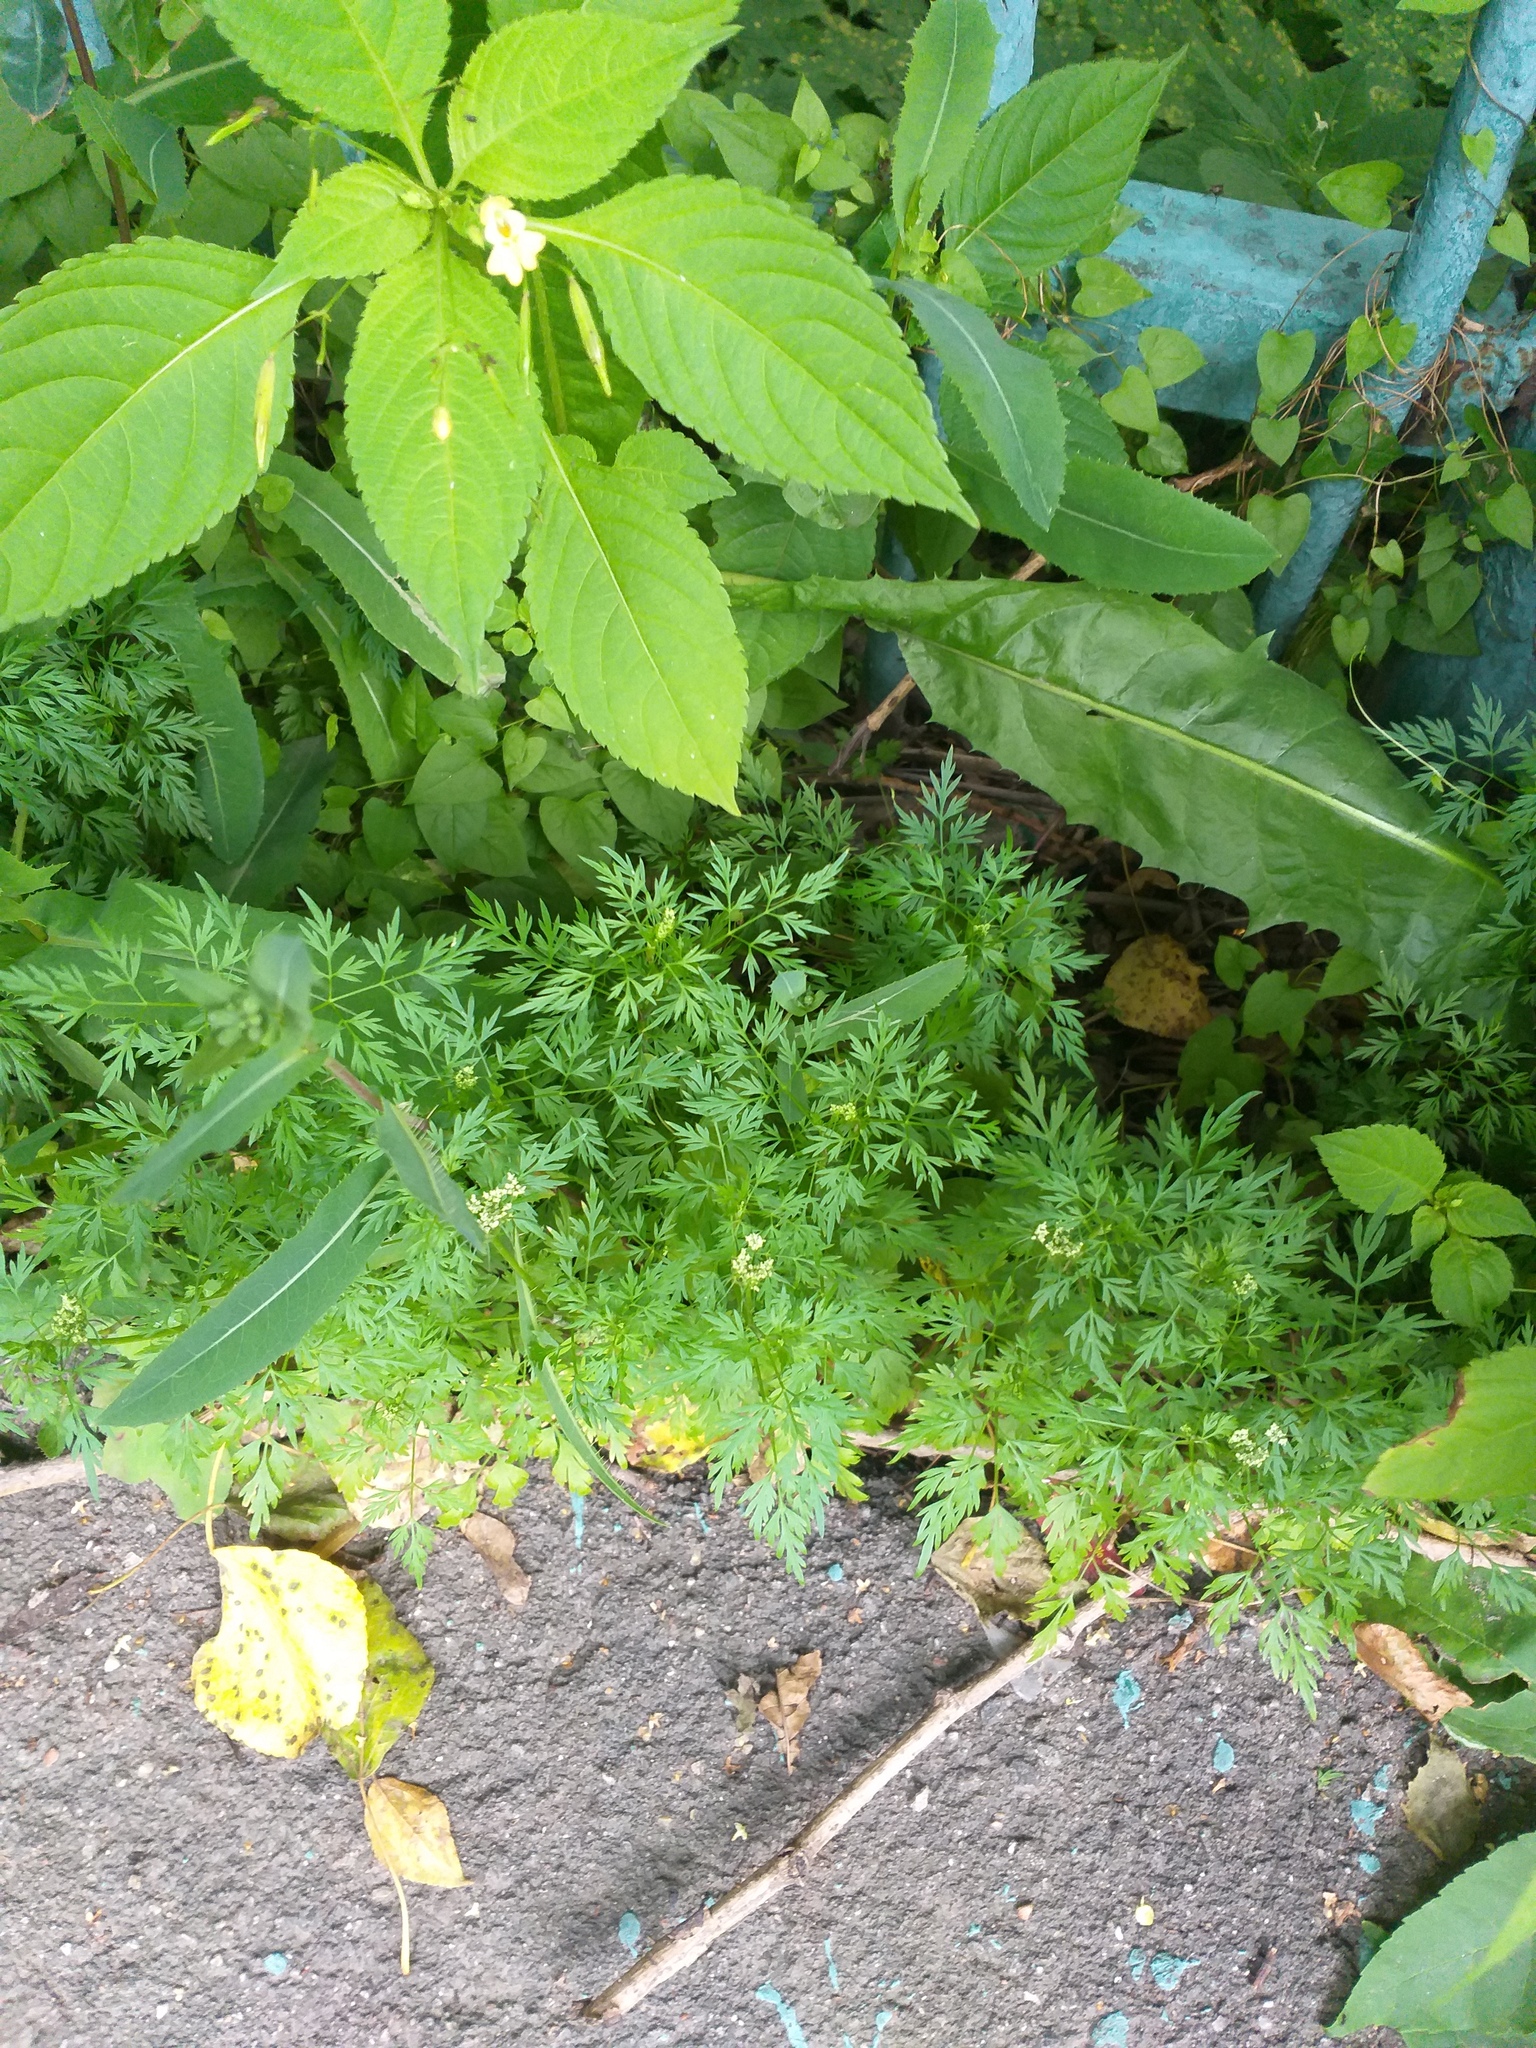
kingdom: Plantae
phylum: Tracheophyta
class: Magnoliopsida
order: Apiales
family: Apiaceae
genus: Aethusa
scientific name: Aethusa cynapium
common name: Fool's parsley
